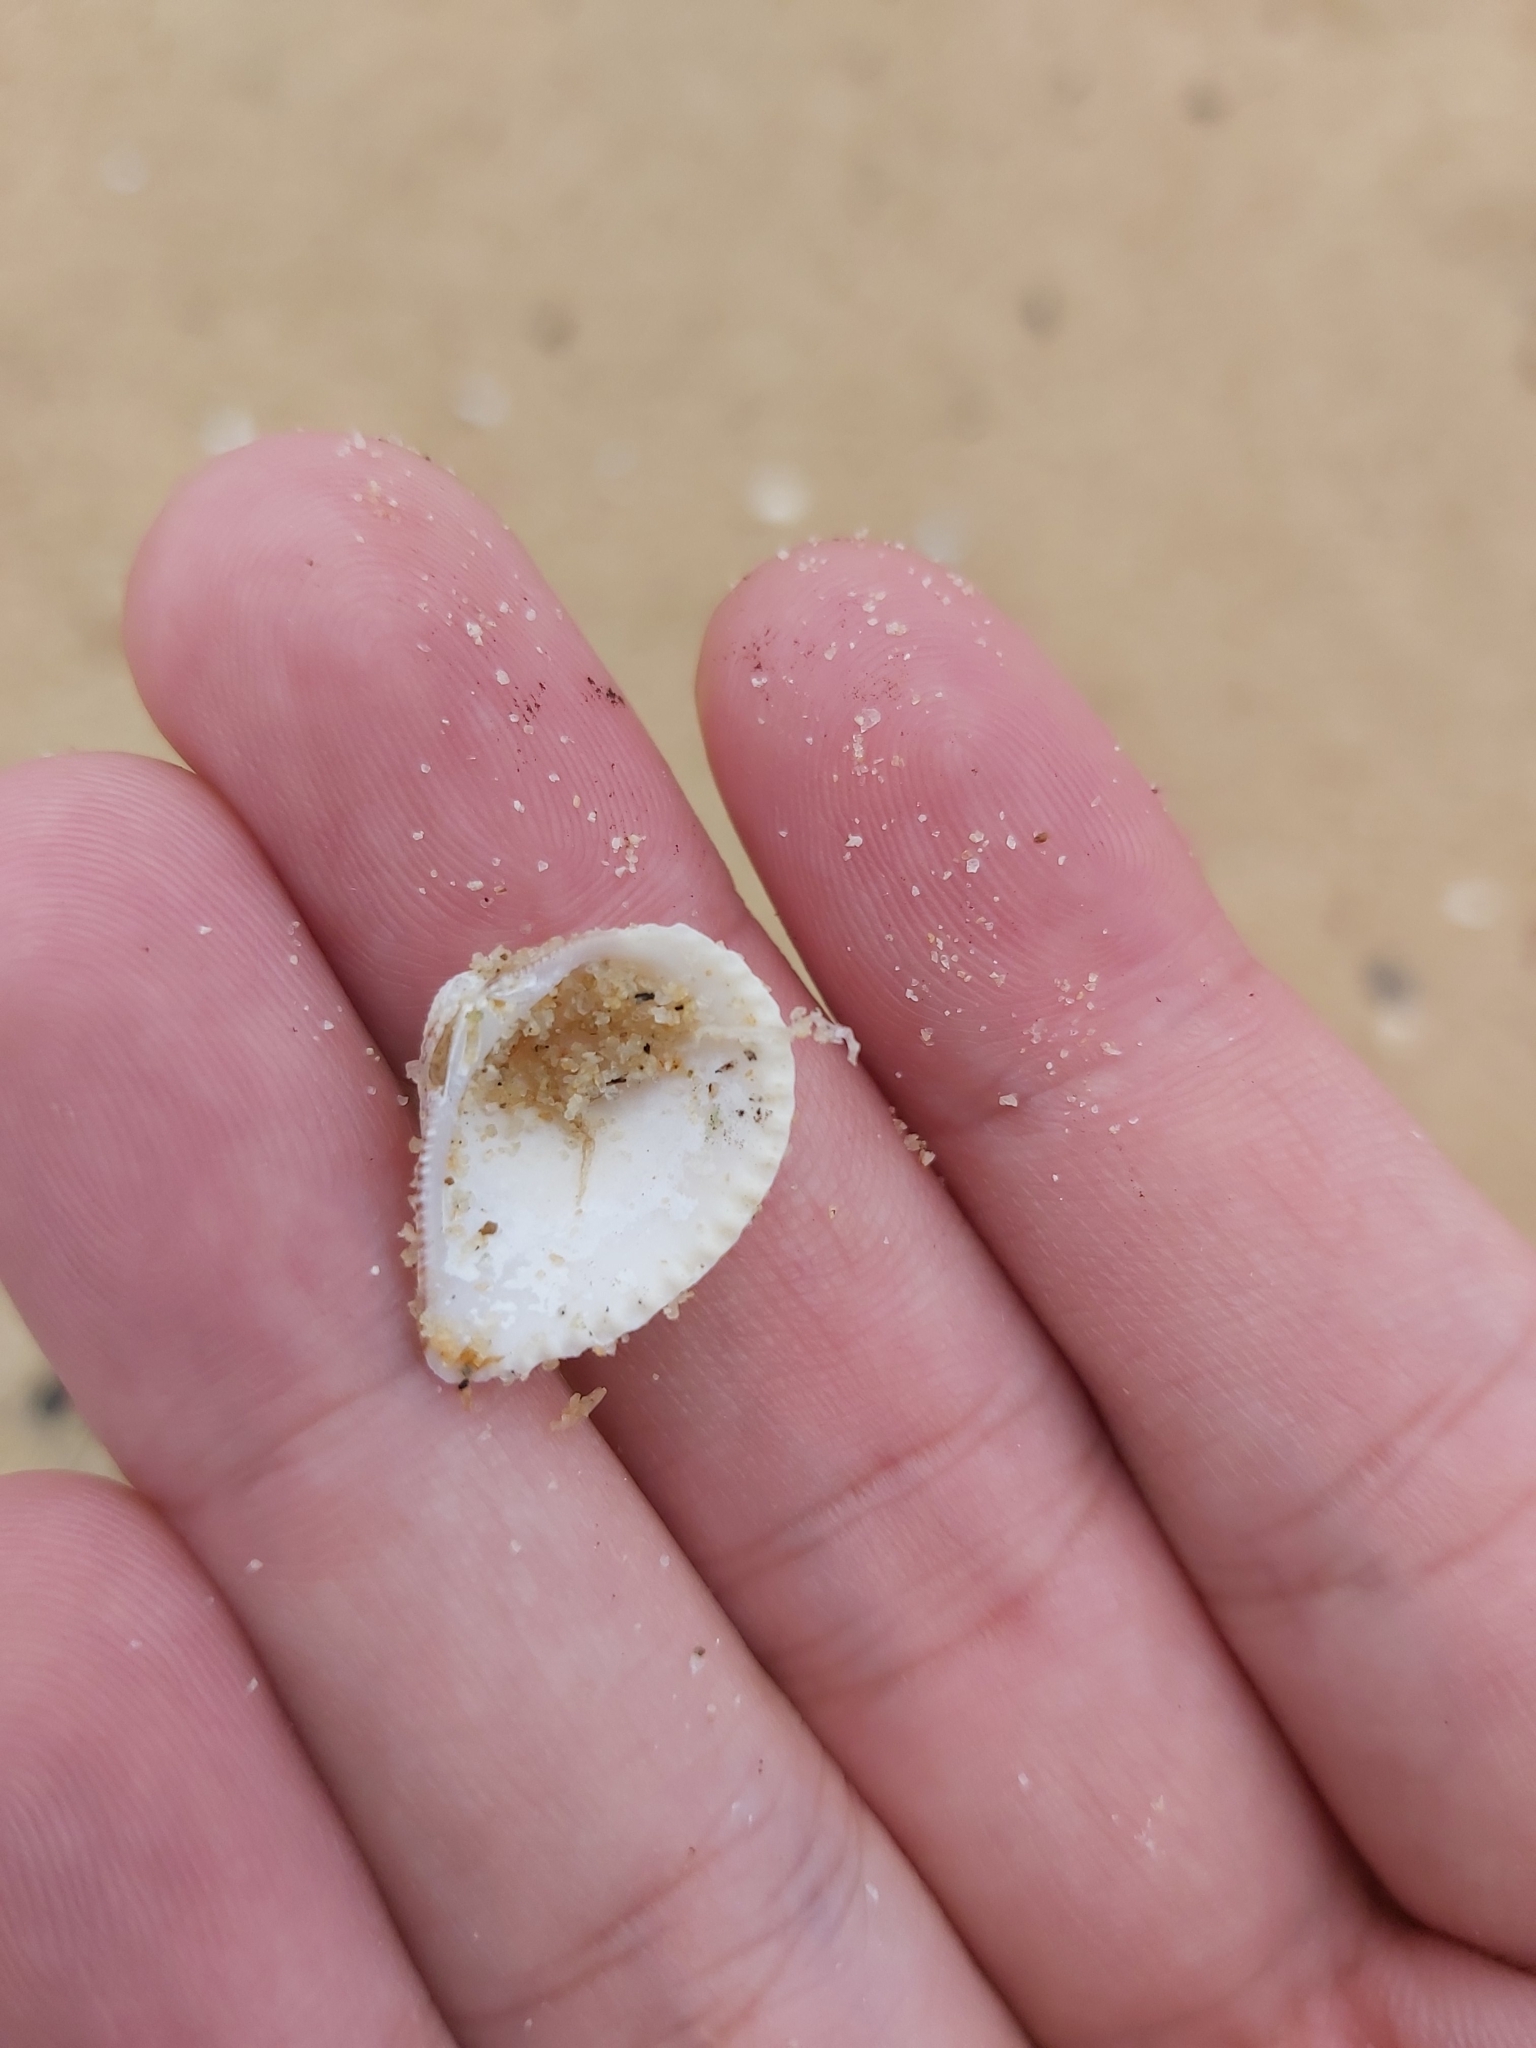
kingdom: Animalia
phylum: Mollusca
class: Bivalvia
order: Venerida
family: Veneridae
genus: Anomalodiscus
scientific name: Anomalodiscus squamosus
